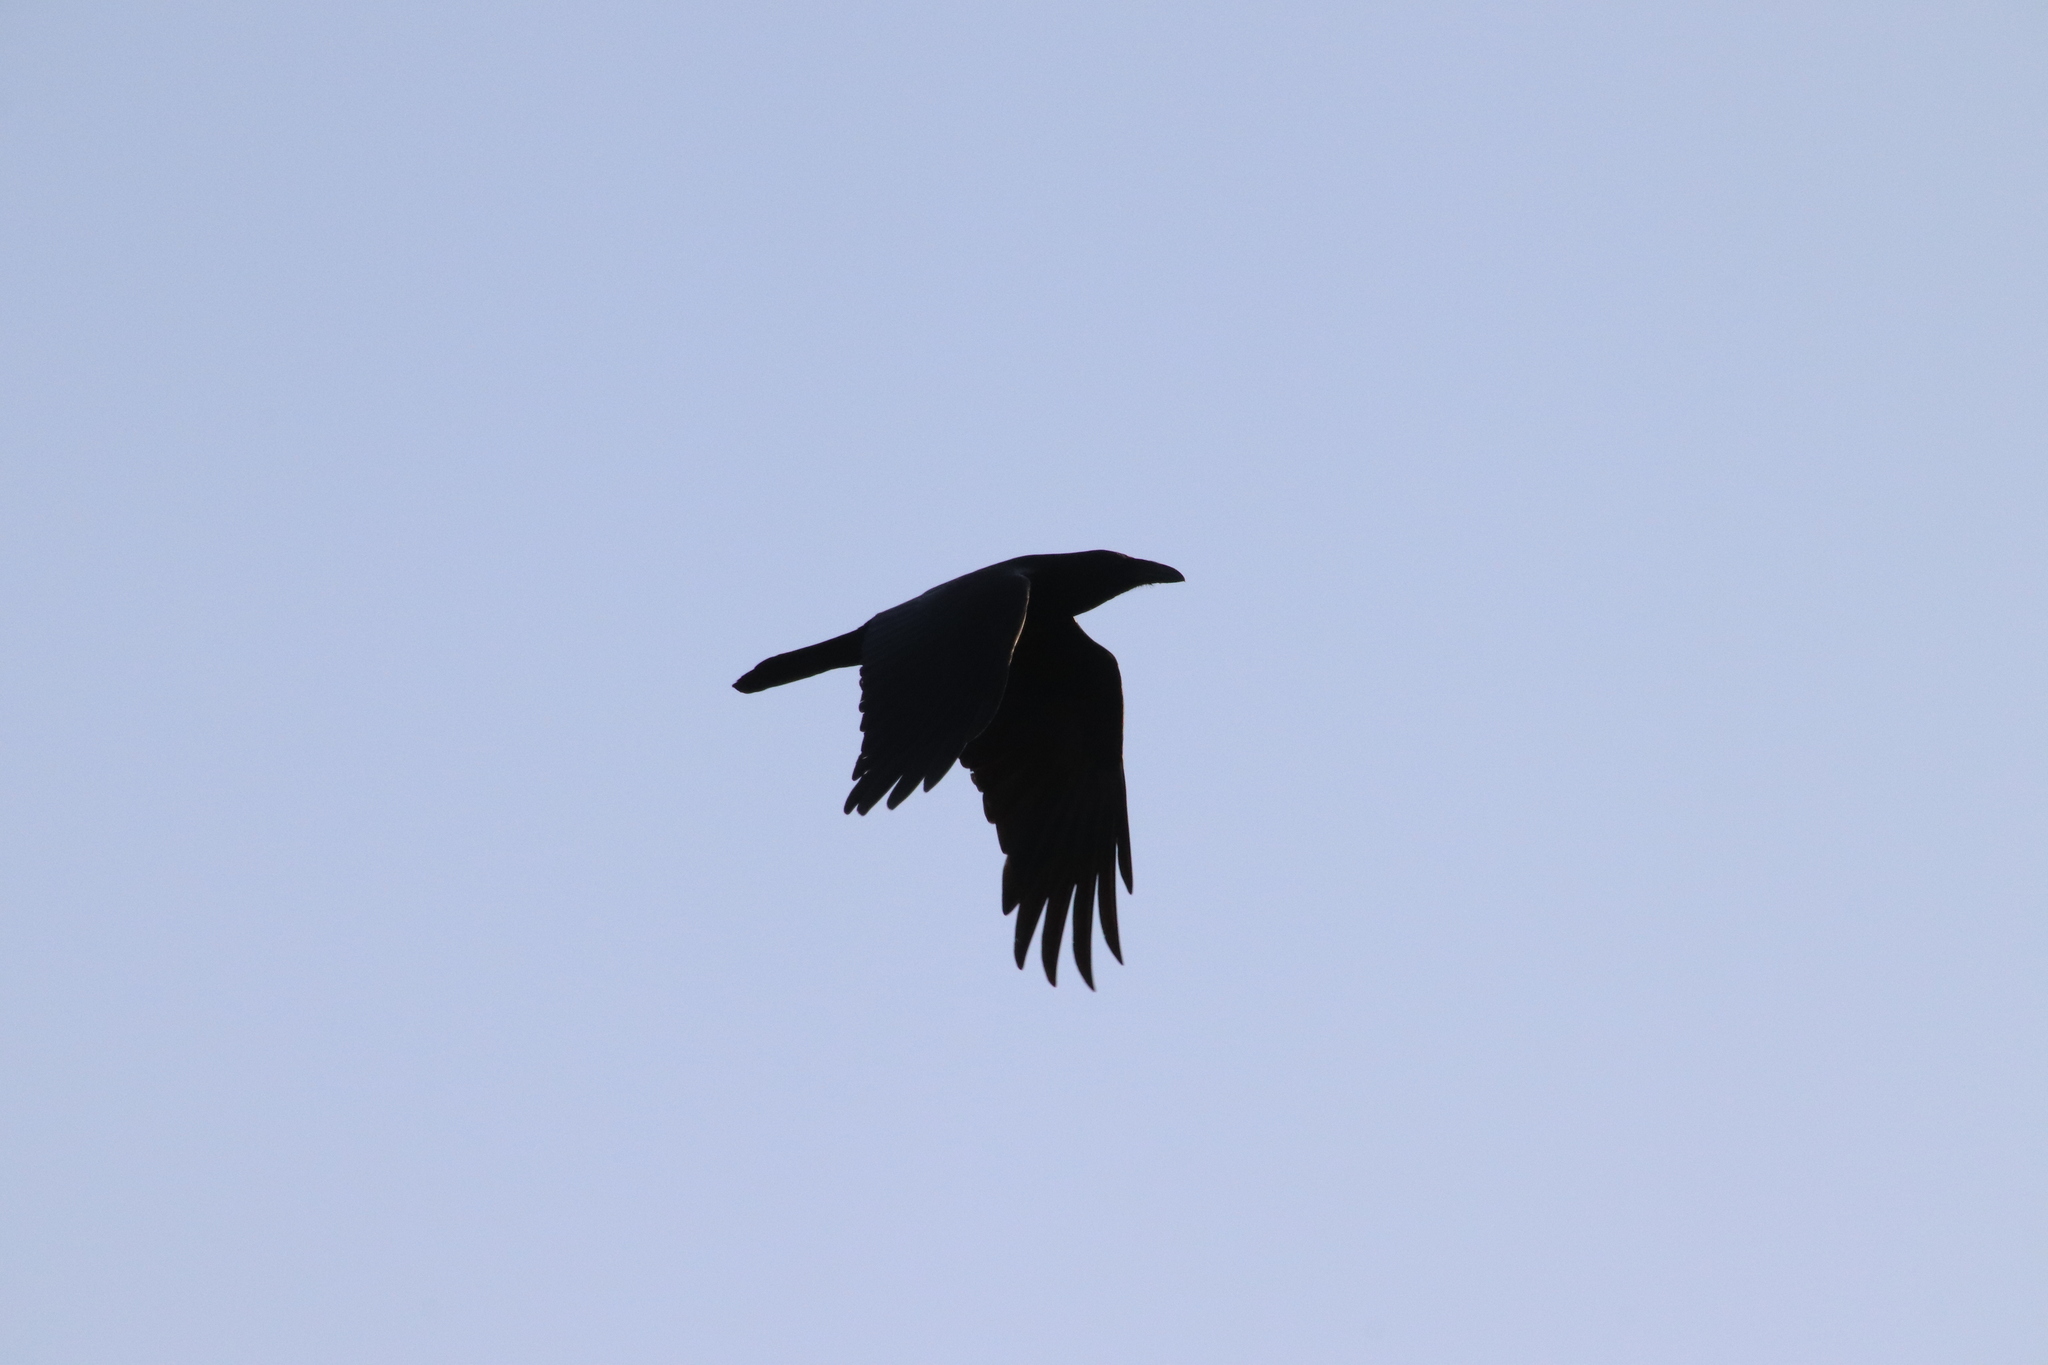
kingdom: Animalia
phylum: Chordata
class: Aves
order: Passeriformes
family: Corvidae
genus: Corvus
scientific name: Corvus corax
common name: Common raven
